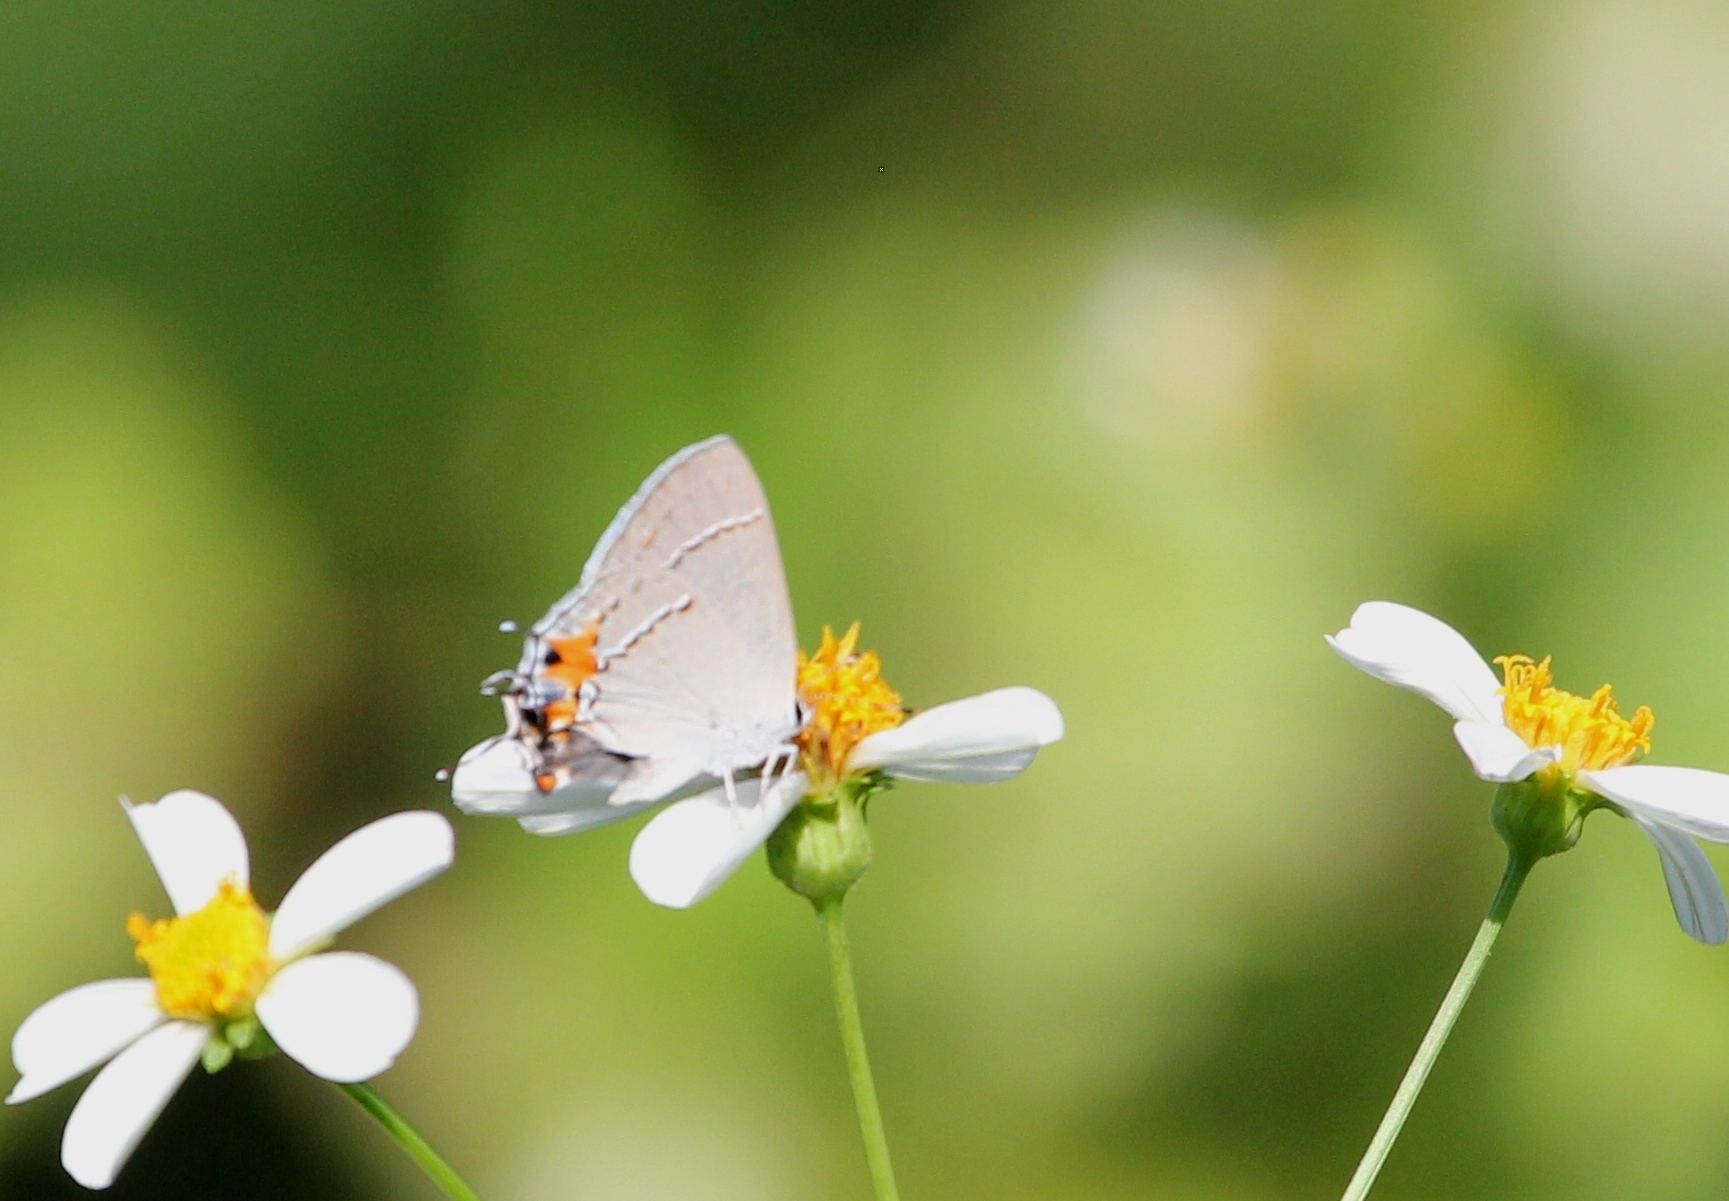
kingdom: Animalia
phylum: Arthropoda
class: Insecta
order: Lepidoptera
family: Lycaenidae
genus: Strymon
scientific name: Strymon melinus
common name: Gray hairstreak
